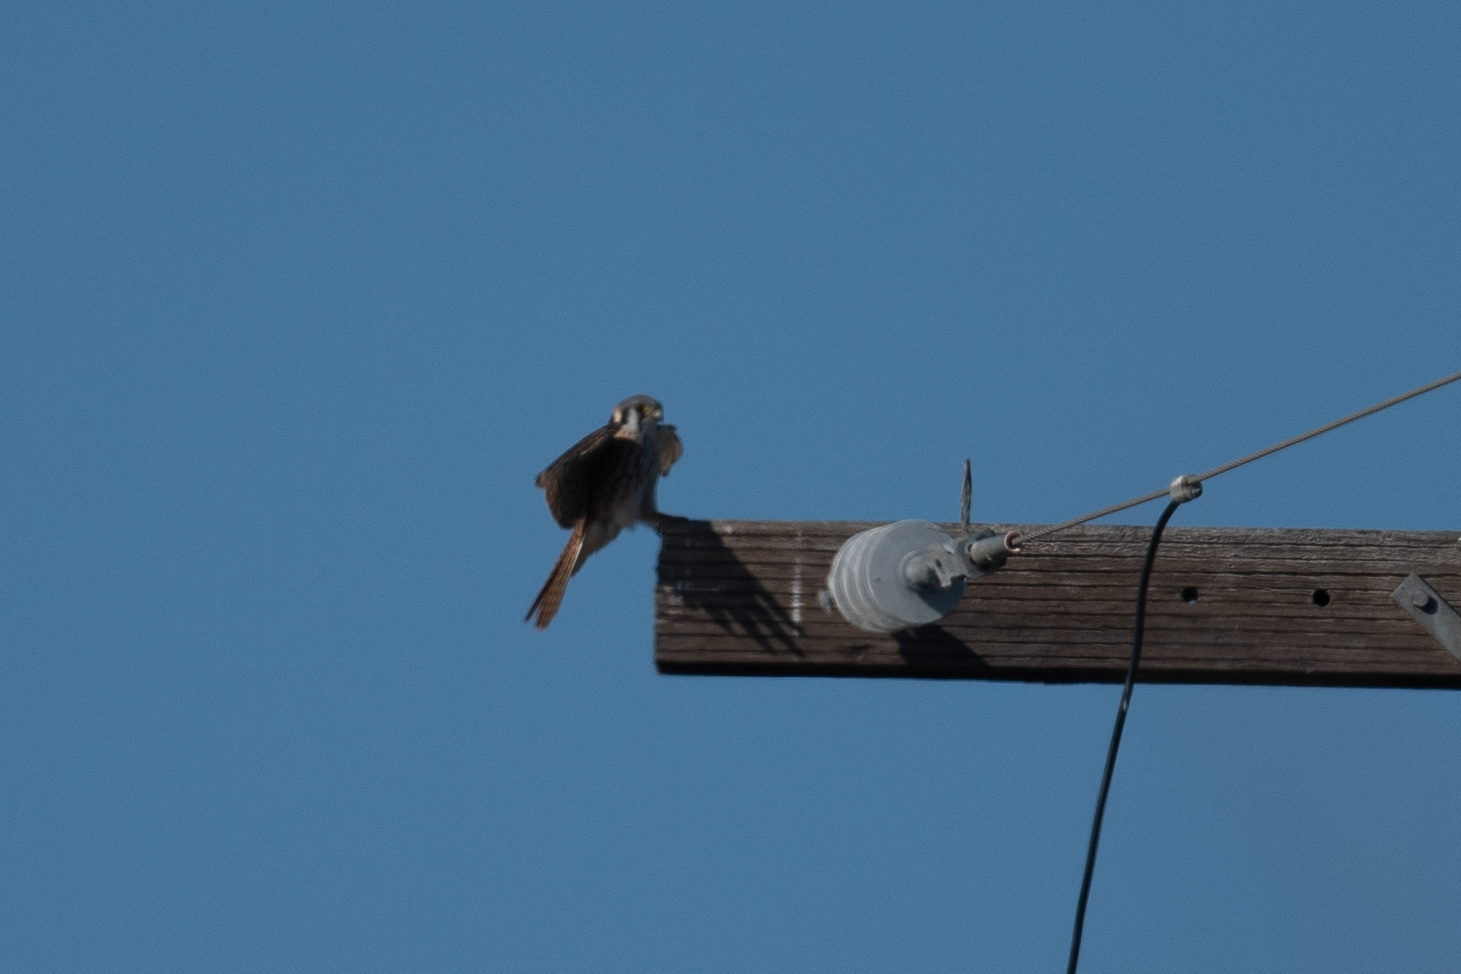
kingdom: Animalia
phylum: Chordata
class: Aves
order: Falconiformes
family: Falconidae
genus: Falco
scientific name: Falco sparverius
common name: American kestrel
